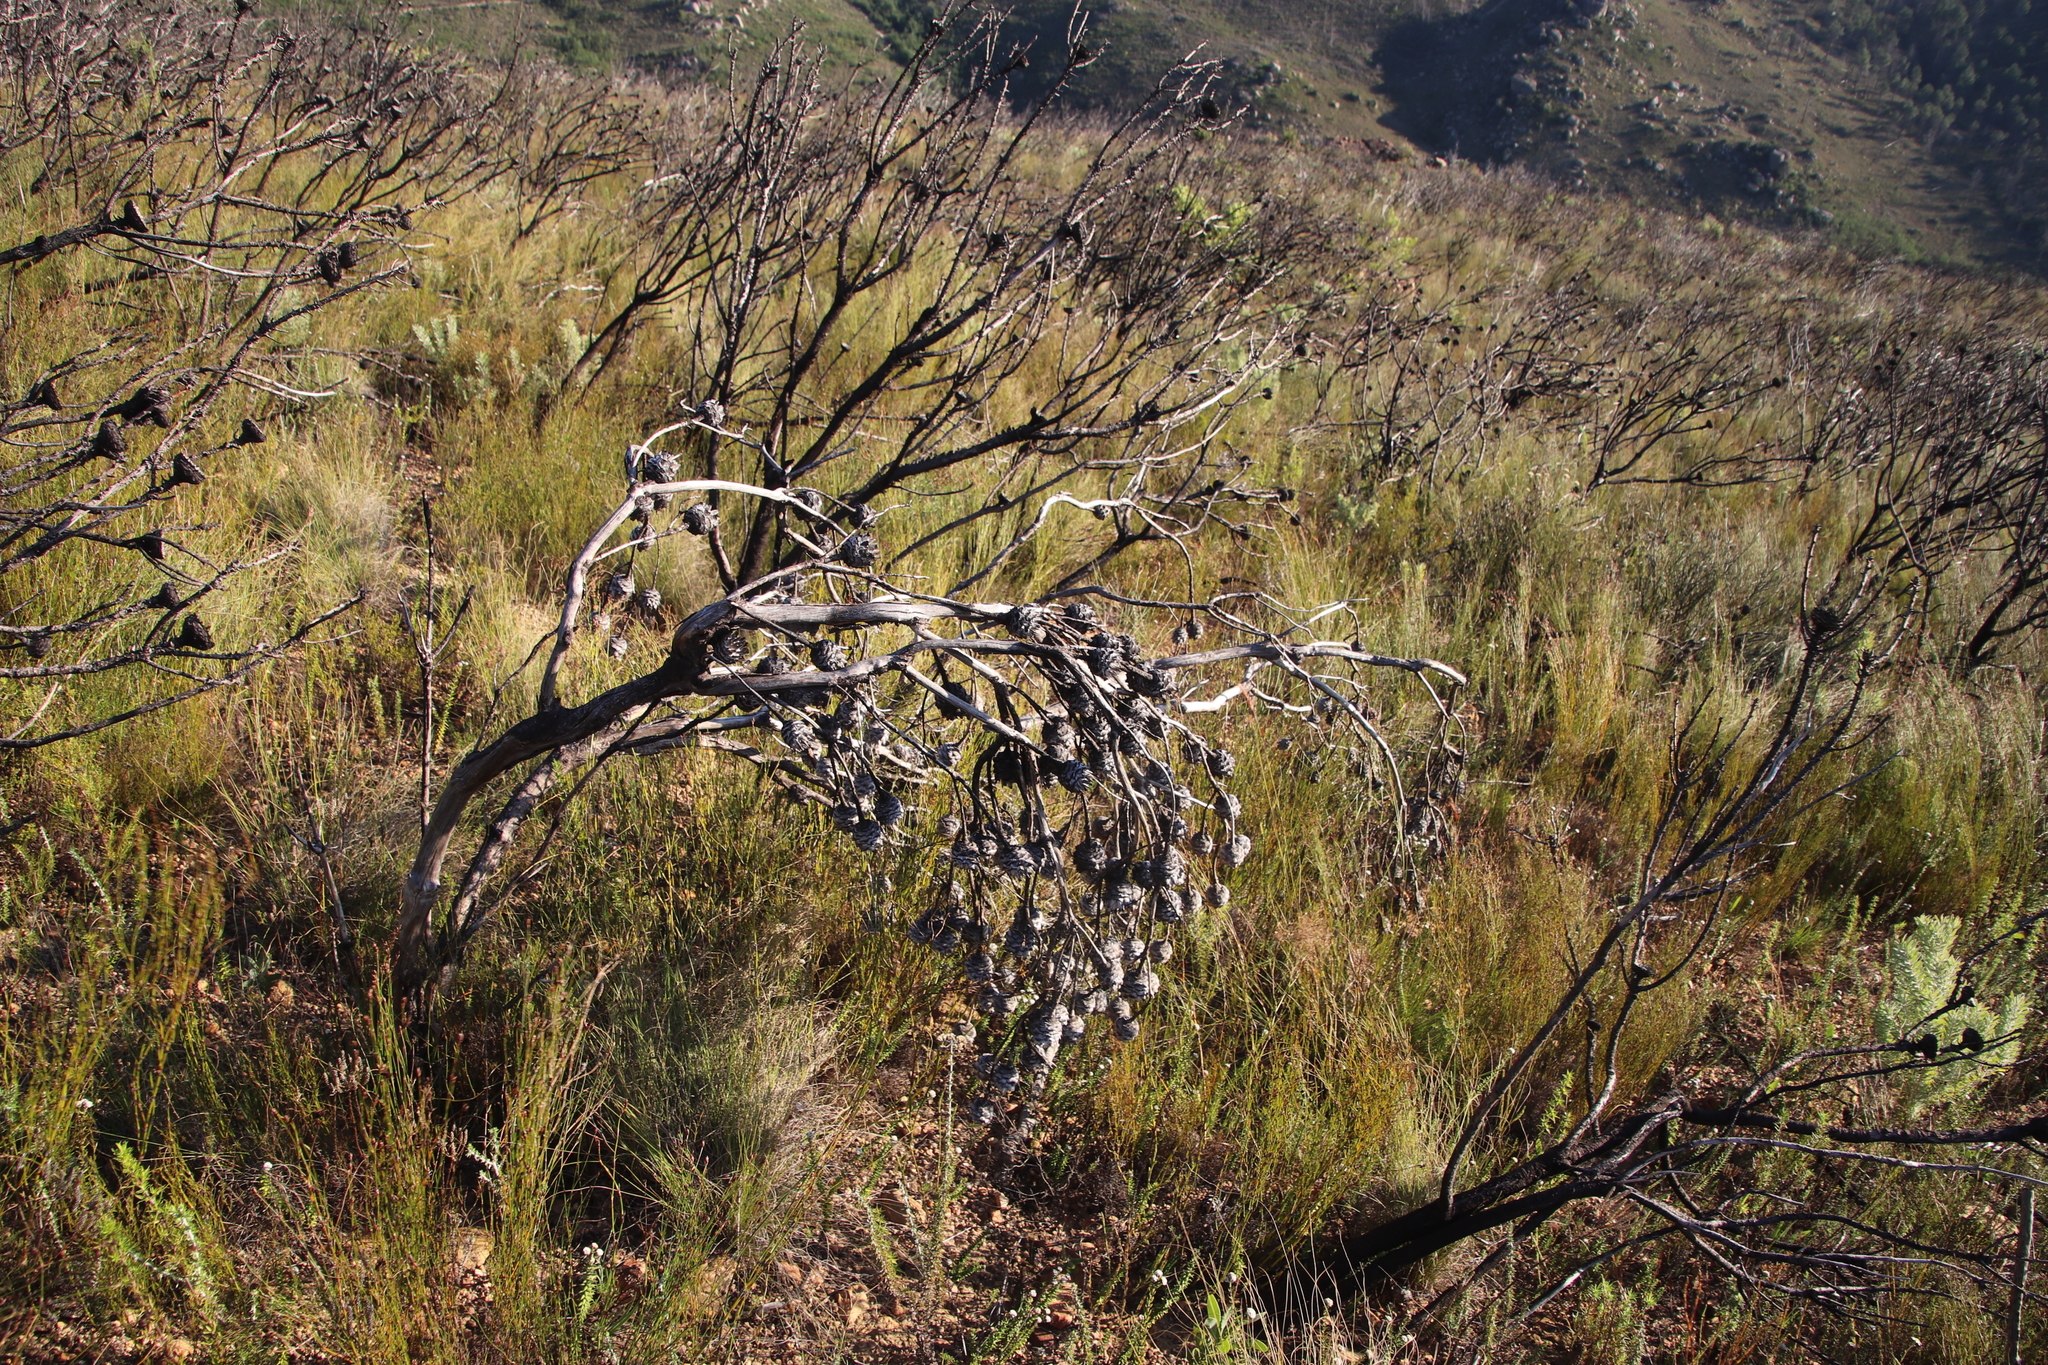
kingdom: Plantae
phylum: Tracheophyta
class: Magnoliopsida
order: Proteales
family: Proteaceae
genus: Leucadendron
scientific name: Leucadendron rubrum
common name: Spinning top
